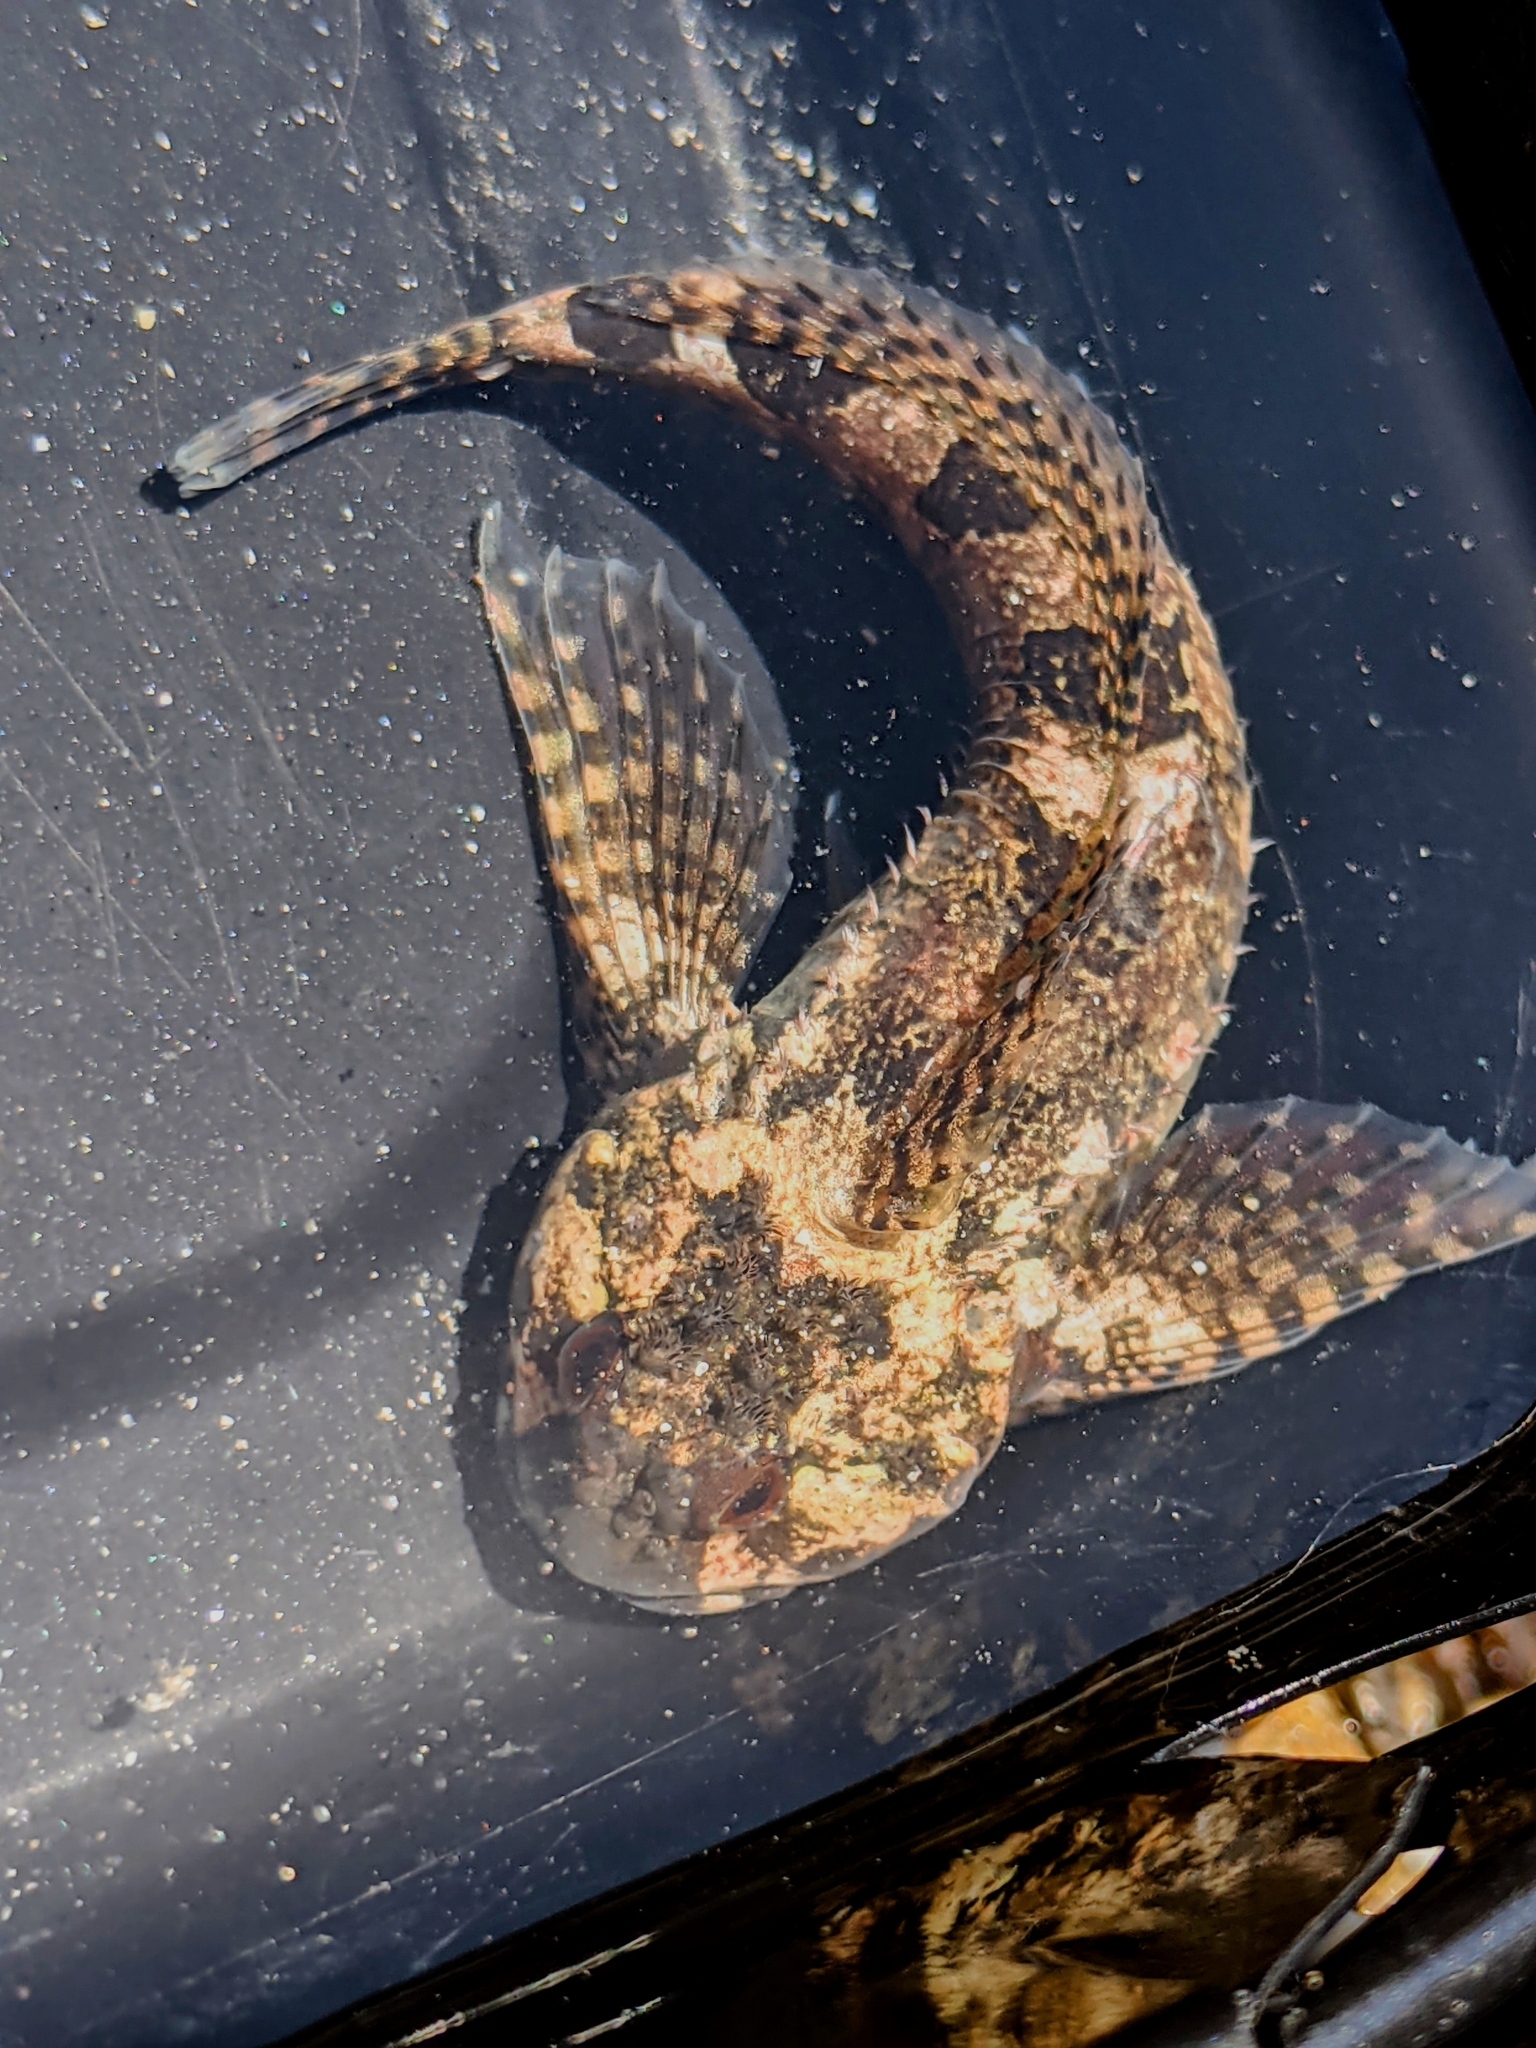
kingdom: Animalia
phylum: Chordata
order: Scorpaeniformes
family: Cottidae
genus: Clinocottus
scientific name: Clinocottus recalvus
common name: Bald sculpin
